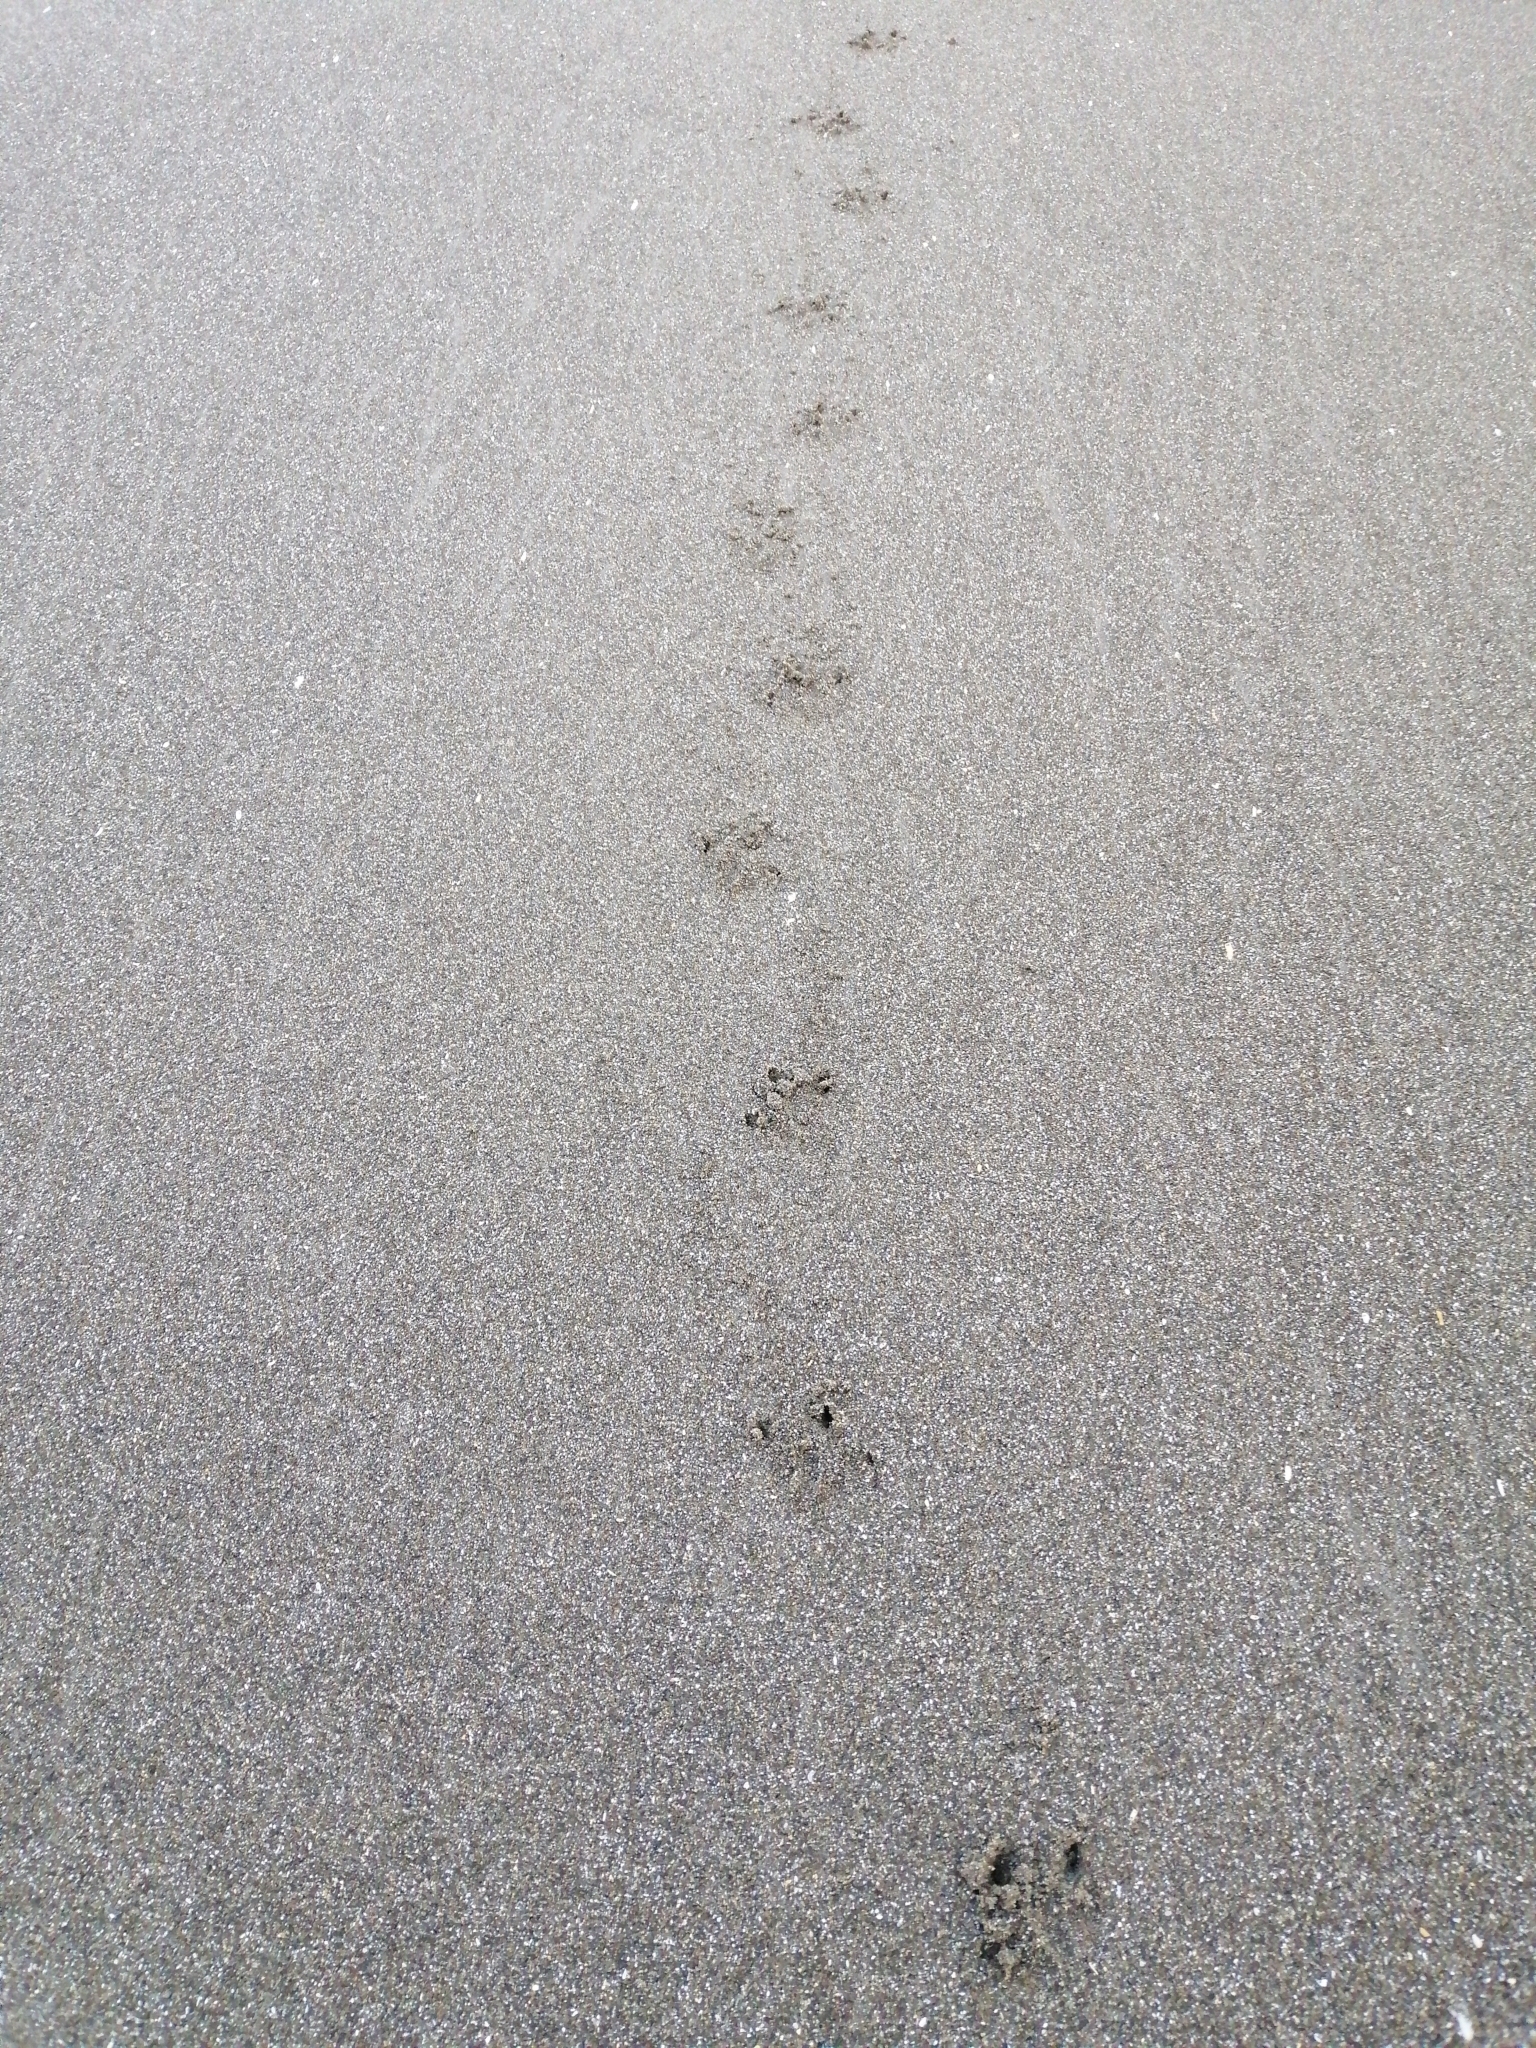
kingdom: Animalia
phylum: Chordata
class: Aves
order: Sphenisciformes
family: Spheniscidae
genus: Eudyptula
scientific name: Eudyptula minor
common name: Little penguin
